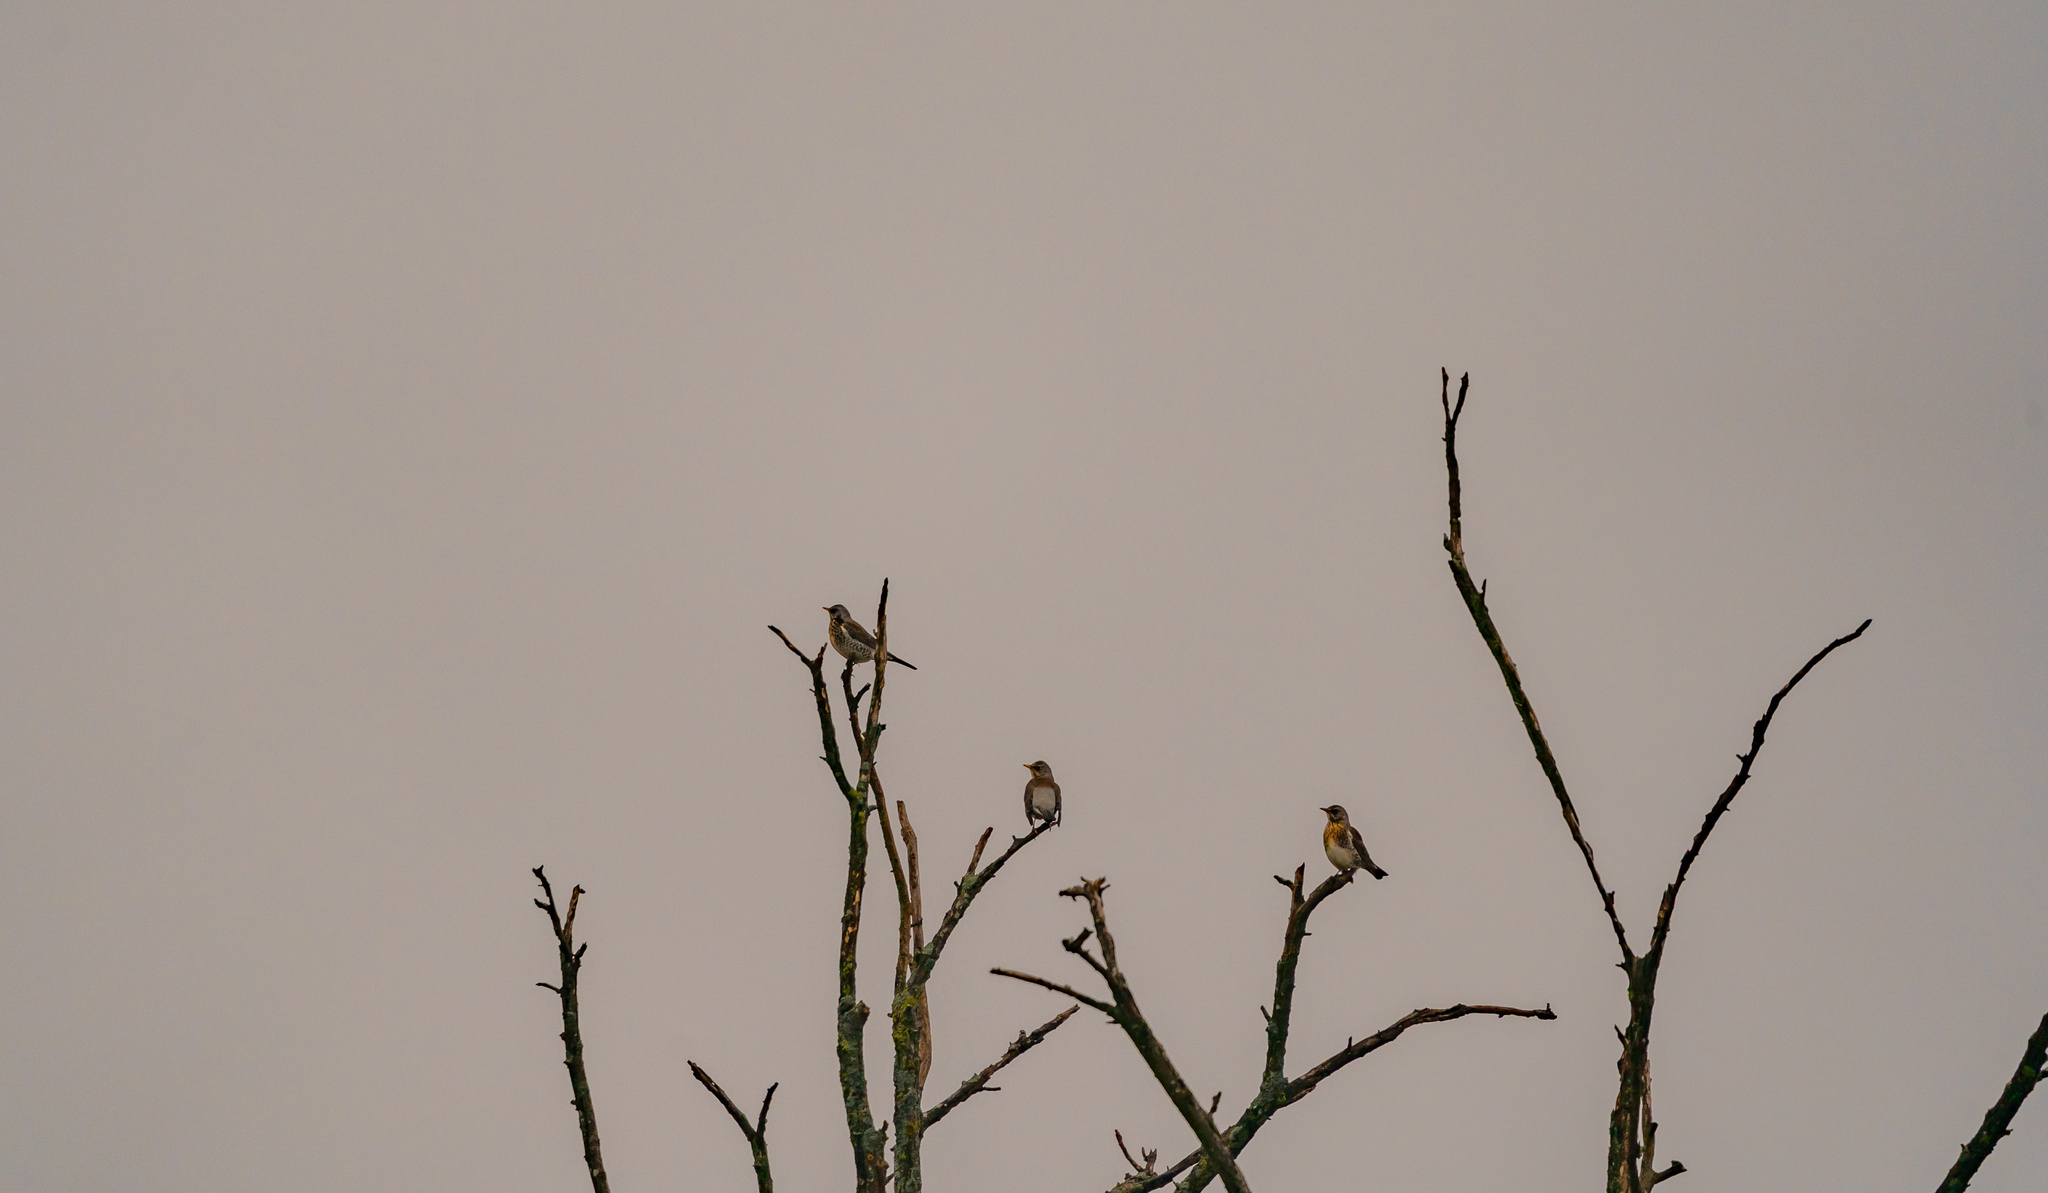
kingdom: Animalia
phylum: Chordata
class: Aves
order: Passeriformes
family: Turdidae
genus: Turdus
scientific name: Turdus pilaris
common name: Fieldfare
